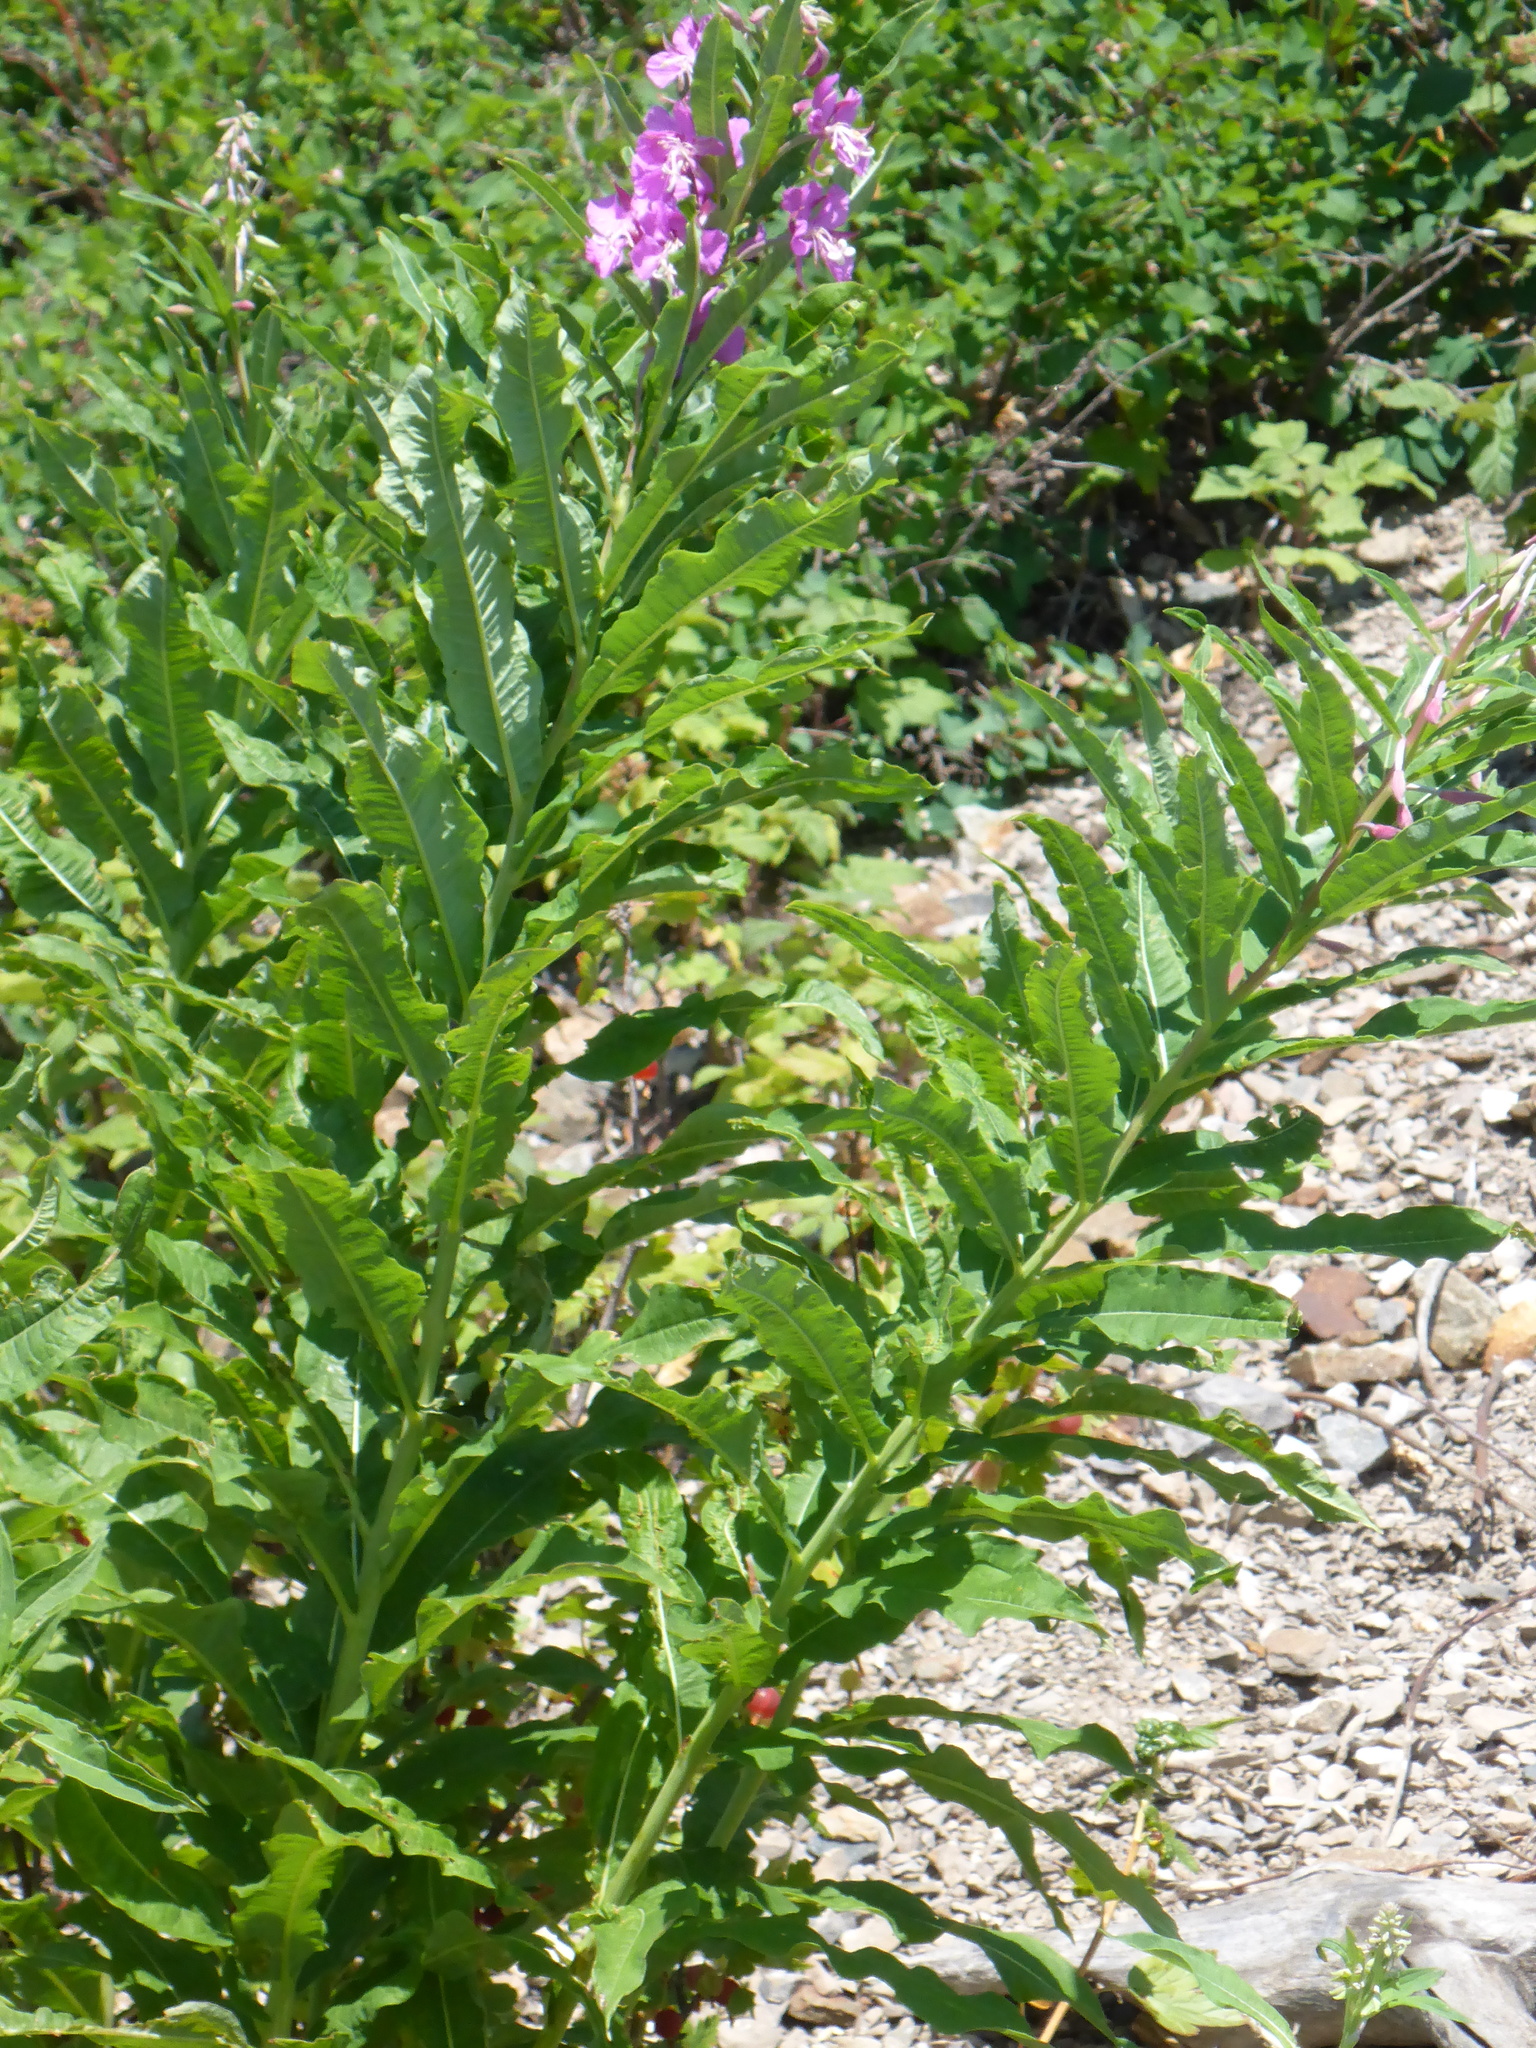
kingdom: Plantae
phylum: Tracheophyta
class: Magnoliopsida
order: Myrtales
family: Onagraceae
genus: Chamaenerion
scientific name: Chamaenerion angustifolium
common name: Fireweed
